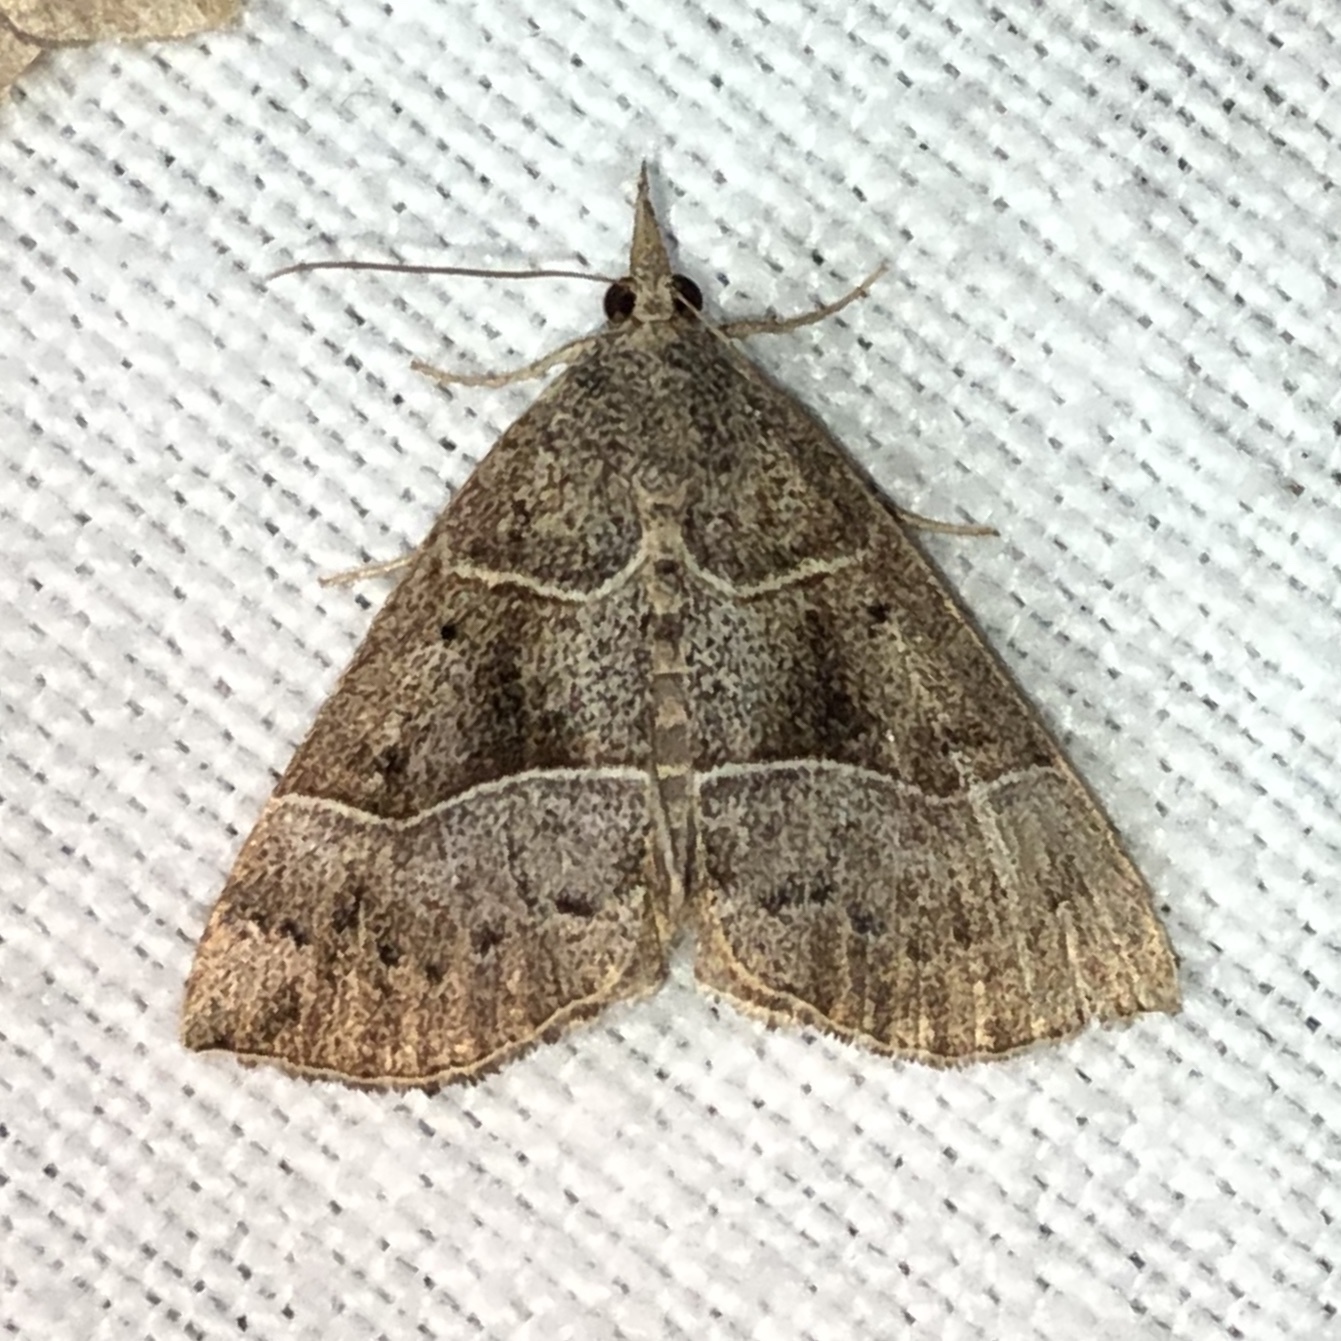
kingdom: Animalia
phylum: Arthropoda
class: Insecta
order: Lepidoptera
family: Erebidae
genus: Hypena
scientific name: Hypena deceptalis
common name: Deceptive snout
